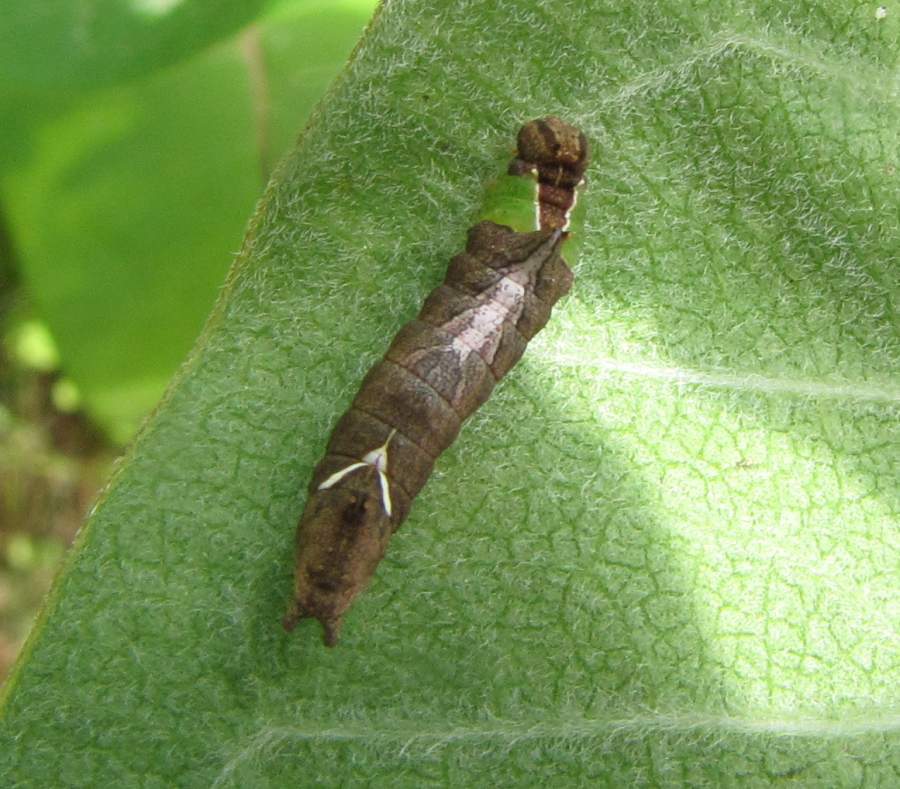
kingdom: Animalia
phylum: Arthropoda
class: Insecta
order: Lepidoptera
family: Notodontidae
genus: Schizura
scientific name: Schizura
